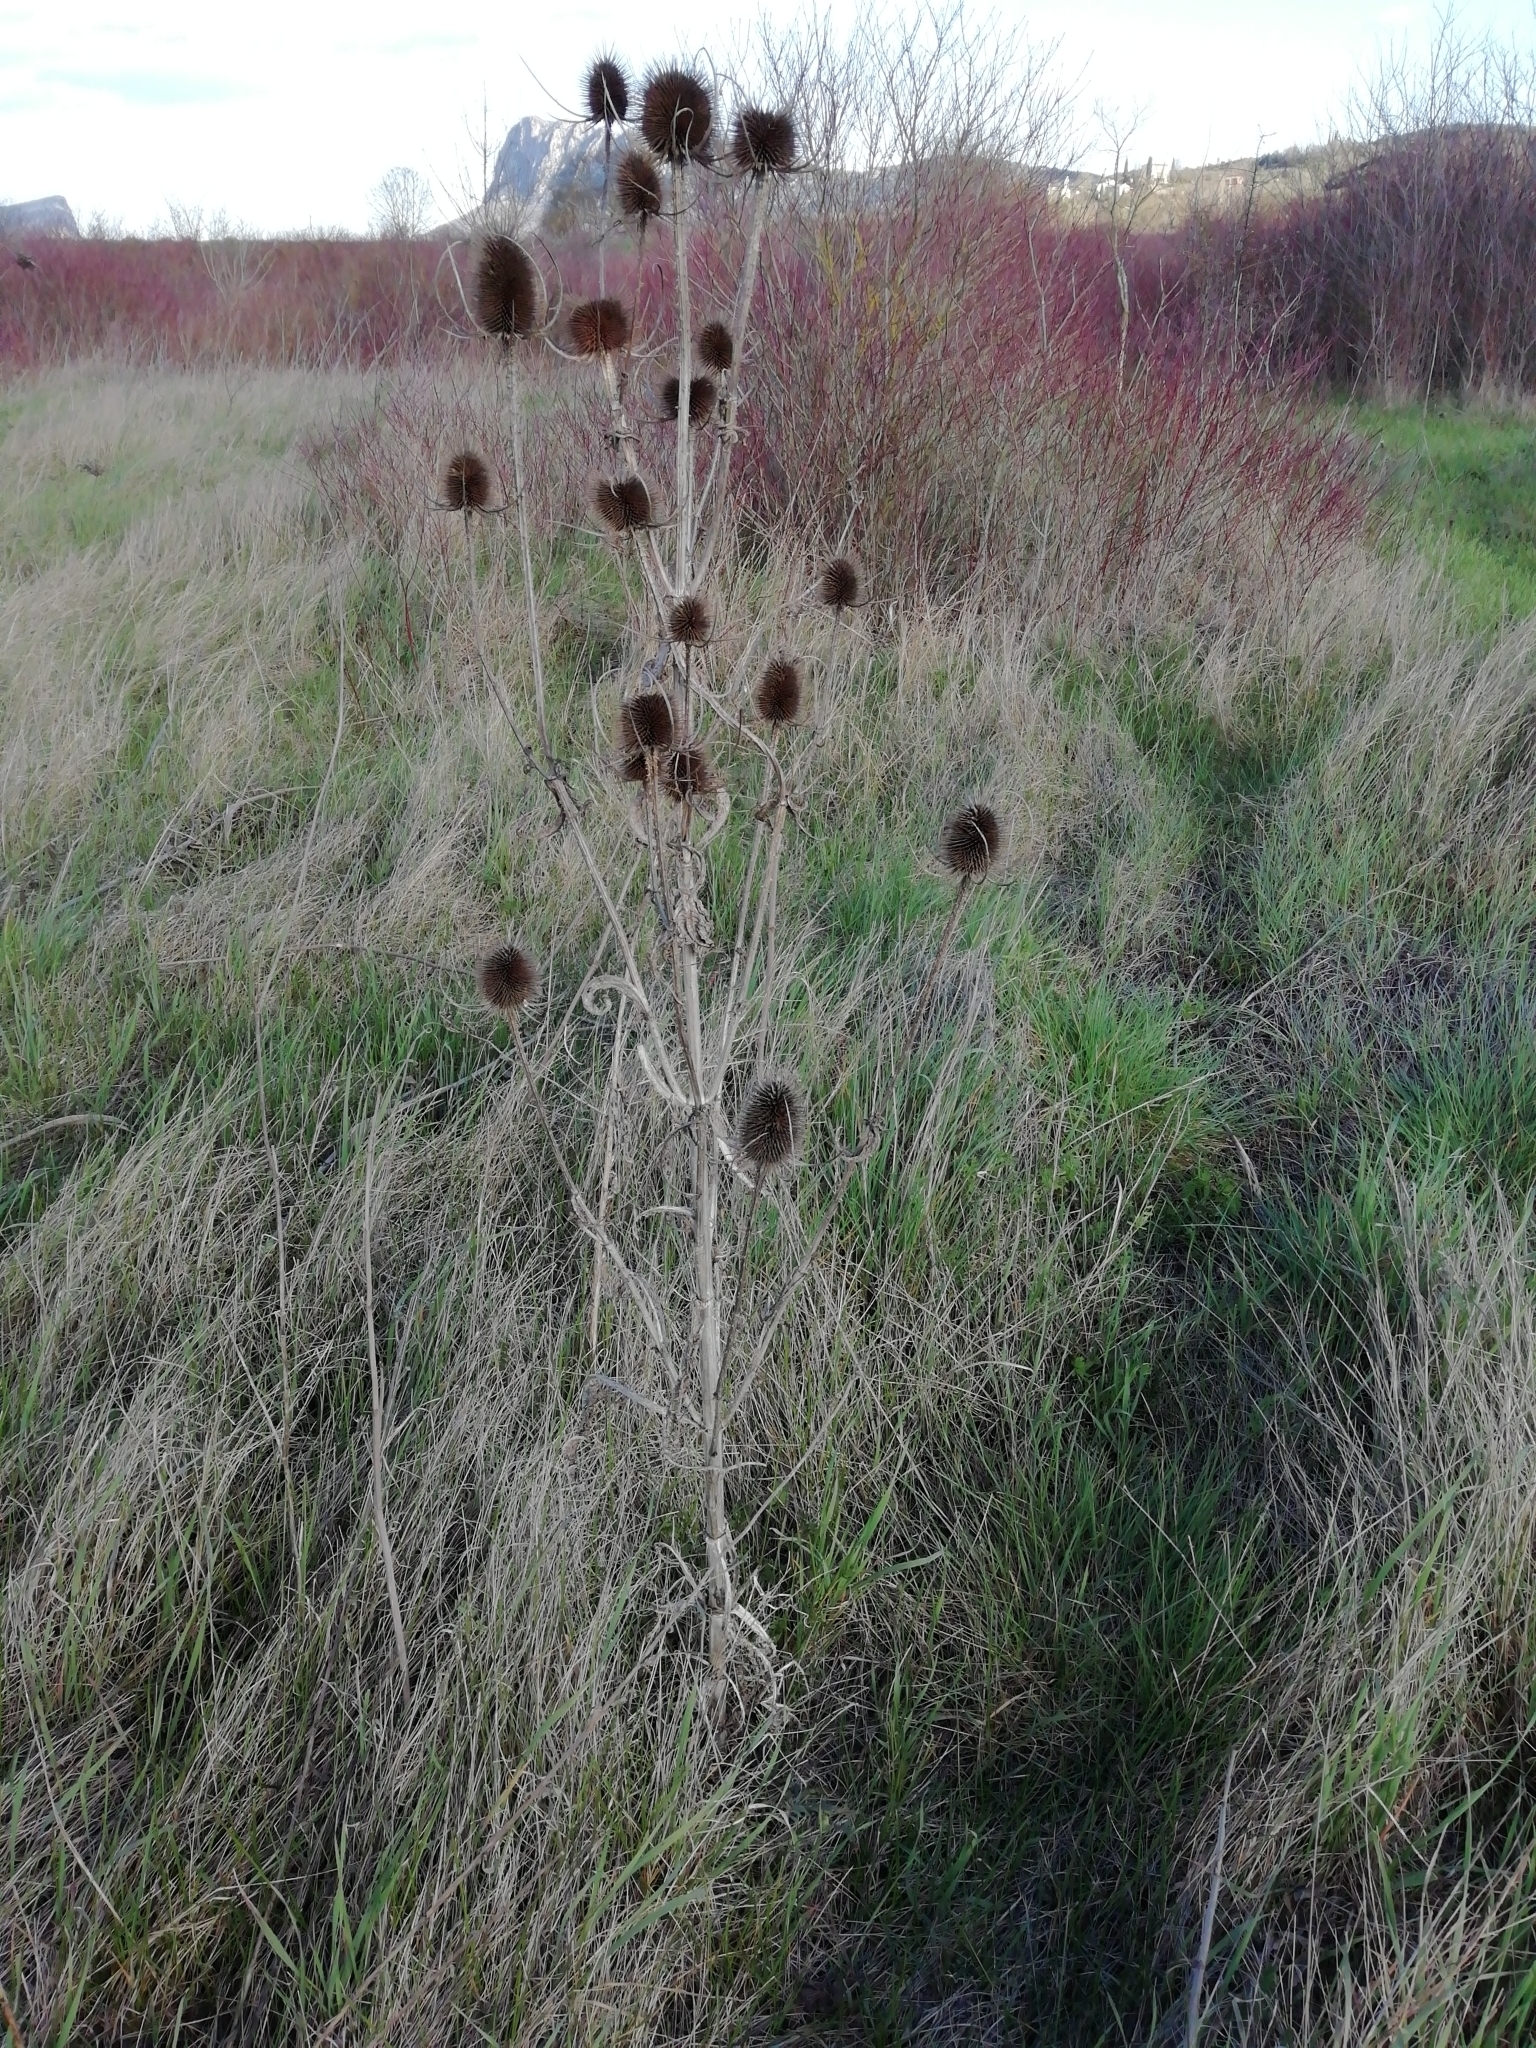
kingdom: Plantae
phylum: Tracheophyta
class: Magnoliopsida
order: Dipsacales
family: Caprifoliaceae
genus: Dipsacus
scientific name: Dipsacus fullonum
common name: Teasel
